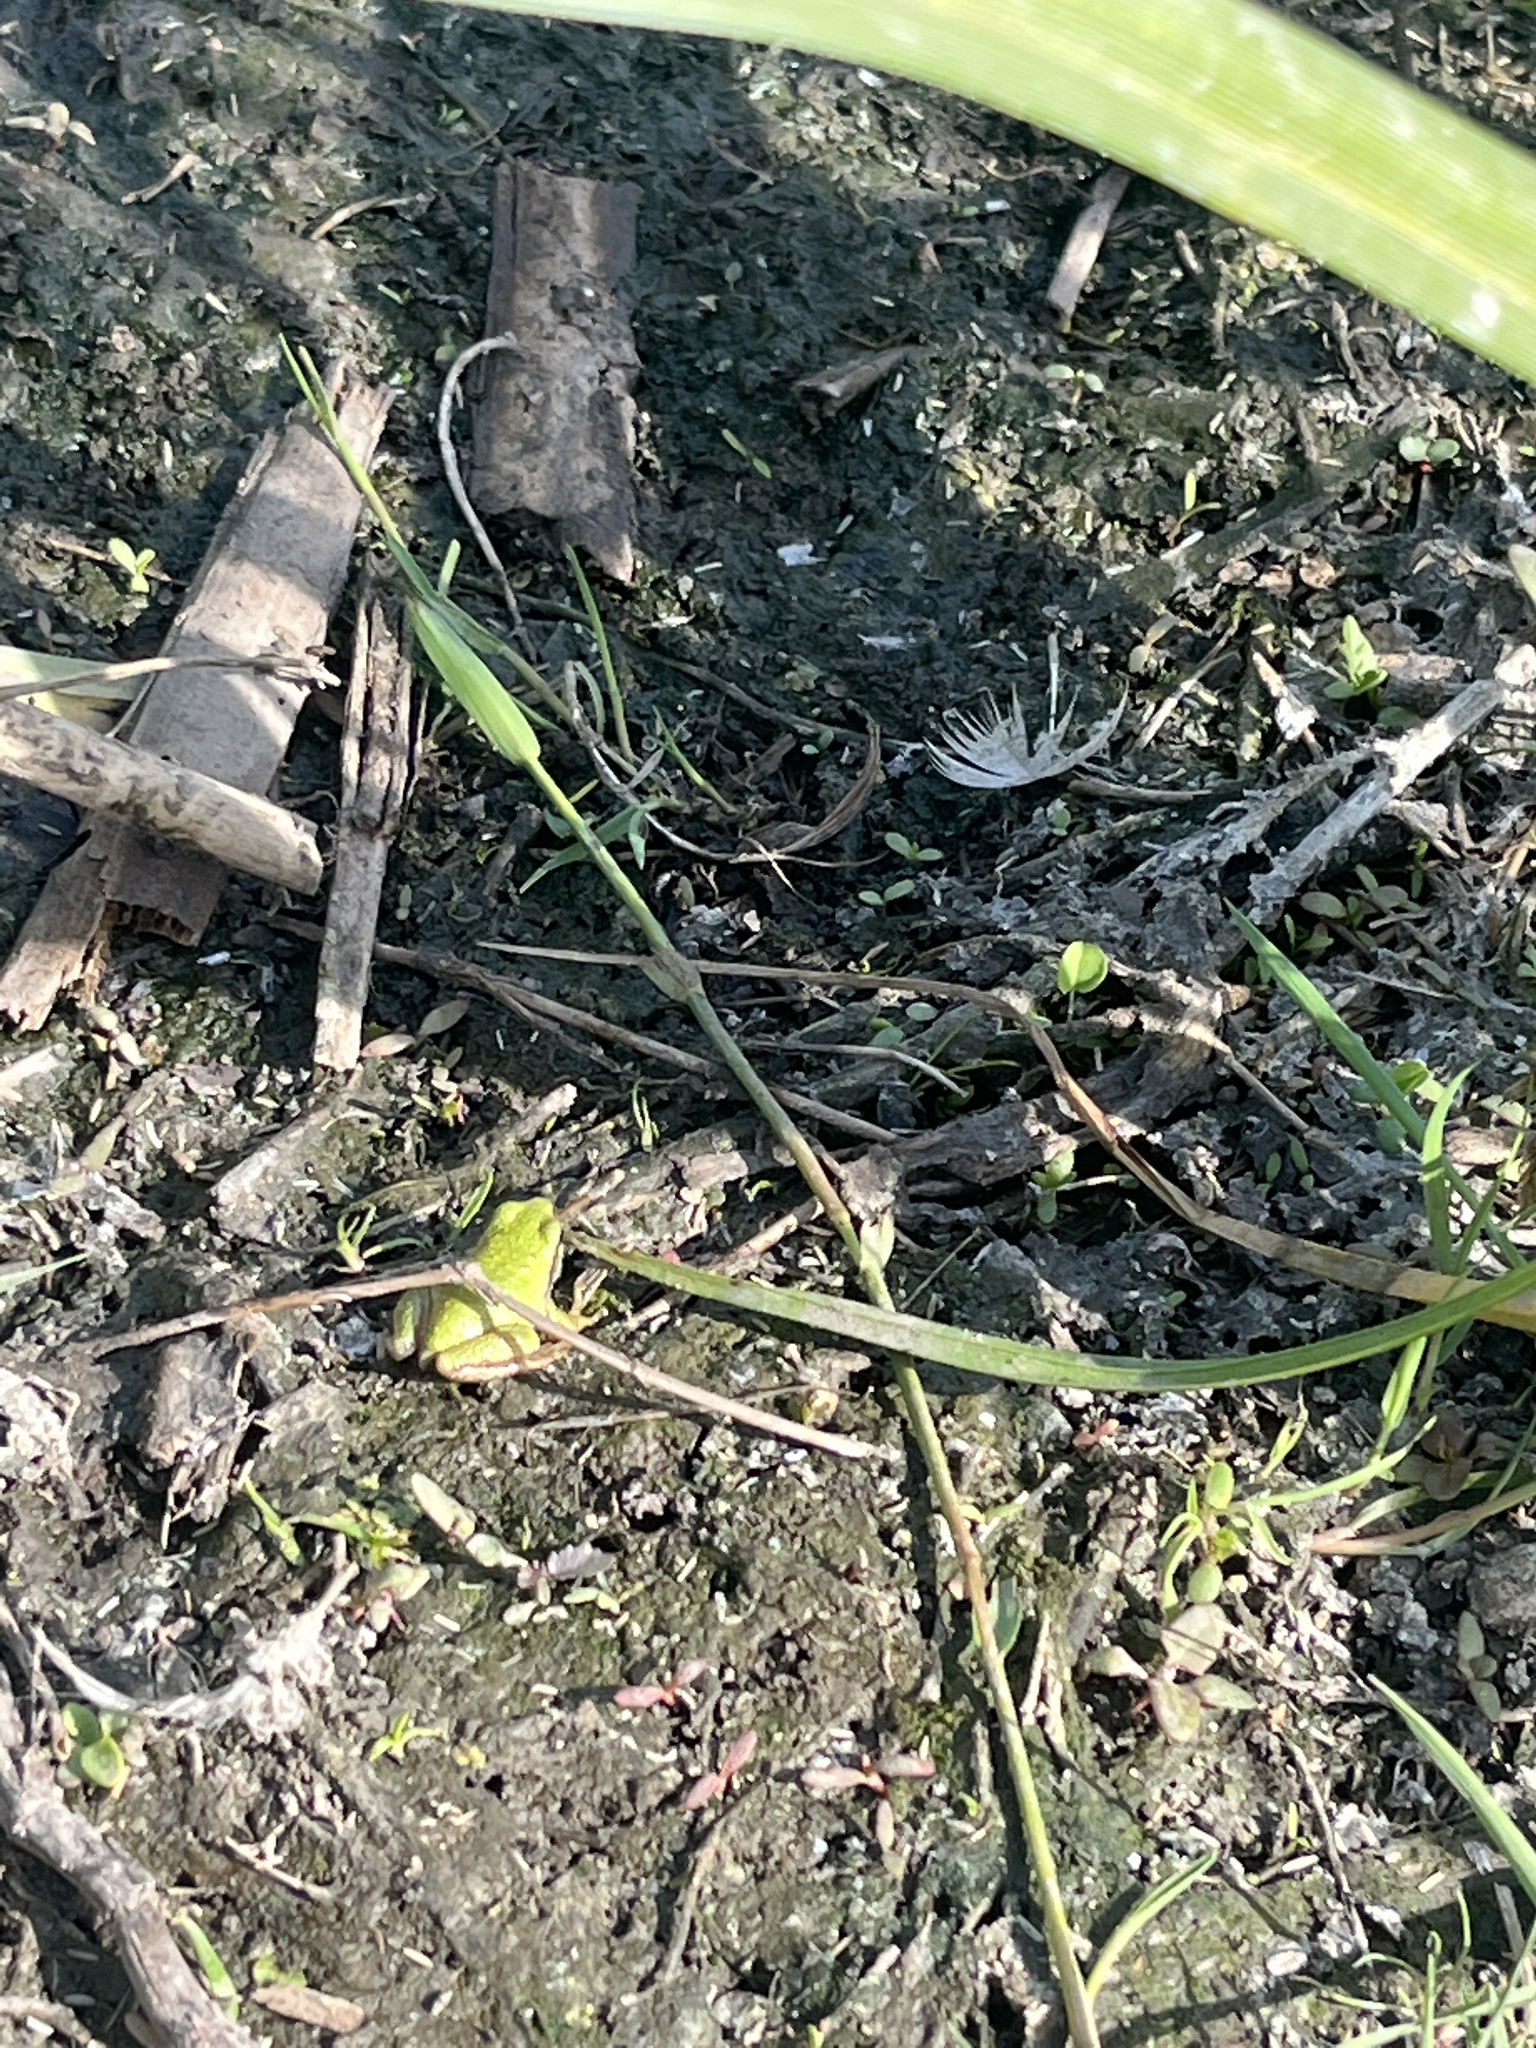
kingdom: Animalia
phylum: Chordata
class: Amphibia
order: Anura
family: Hylidae
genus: Pseudacris
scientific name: Pseudacris regilla
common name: Pacific chorus frog
